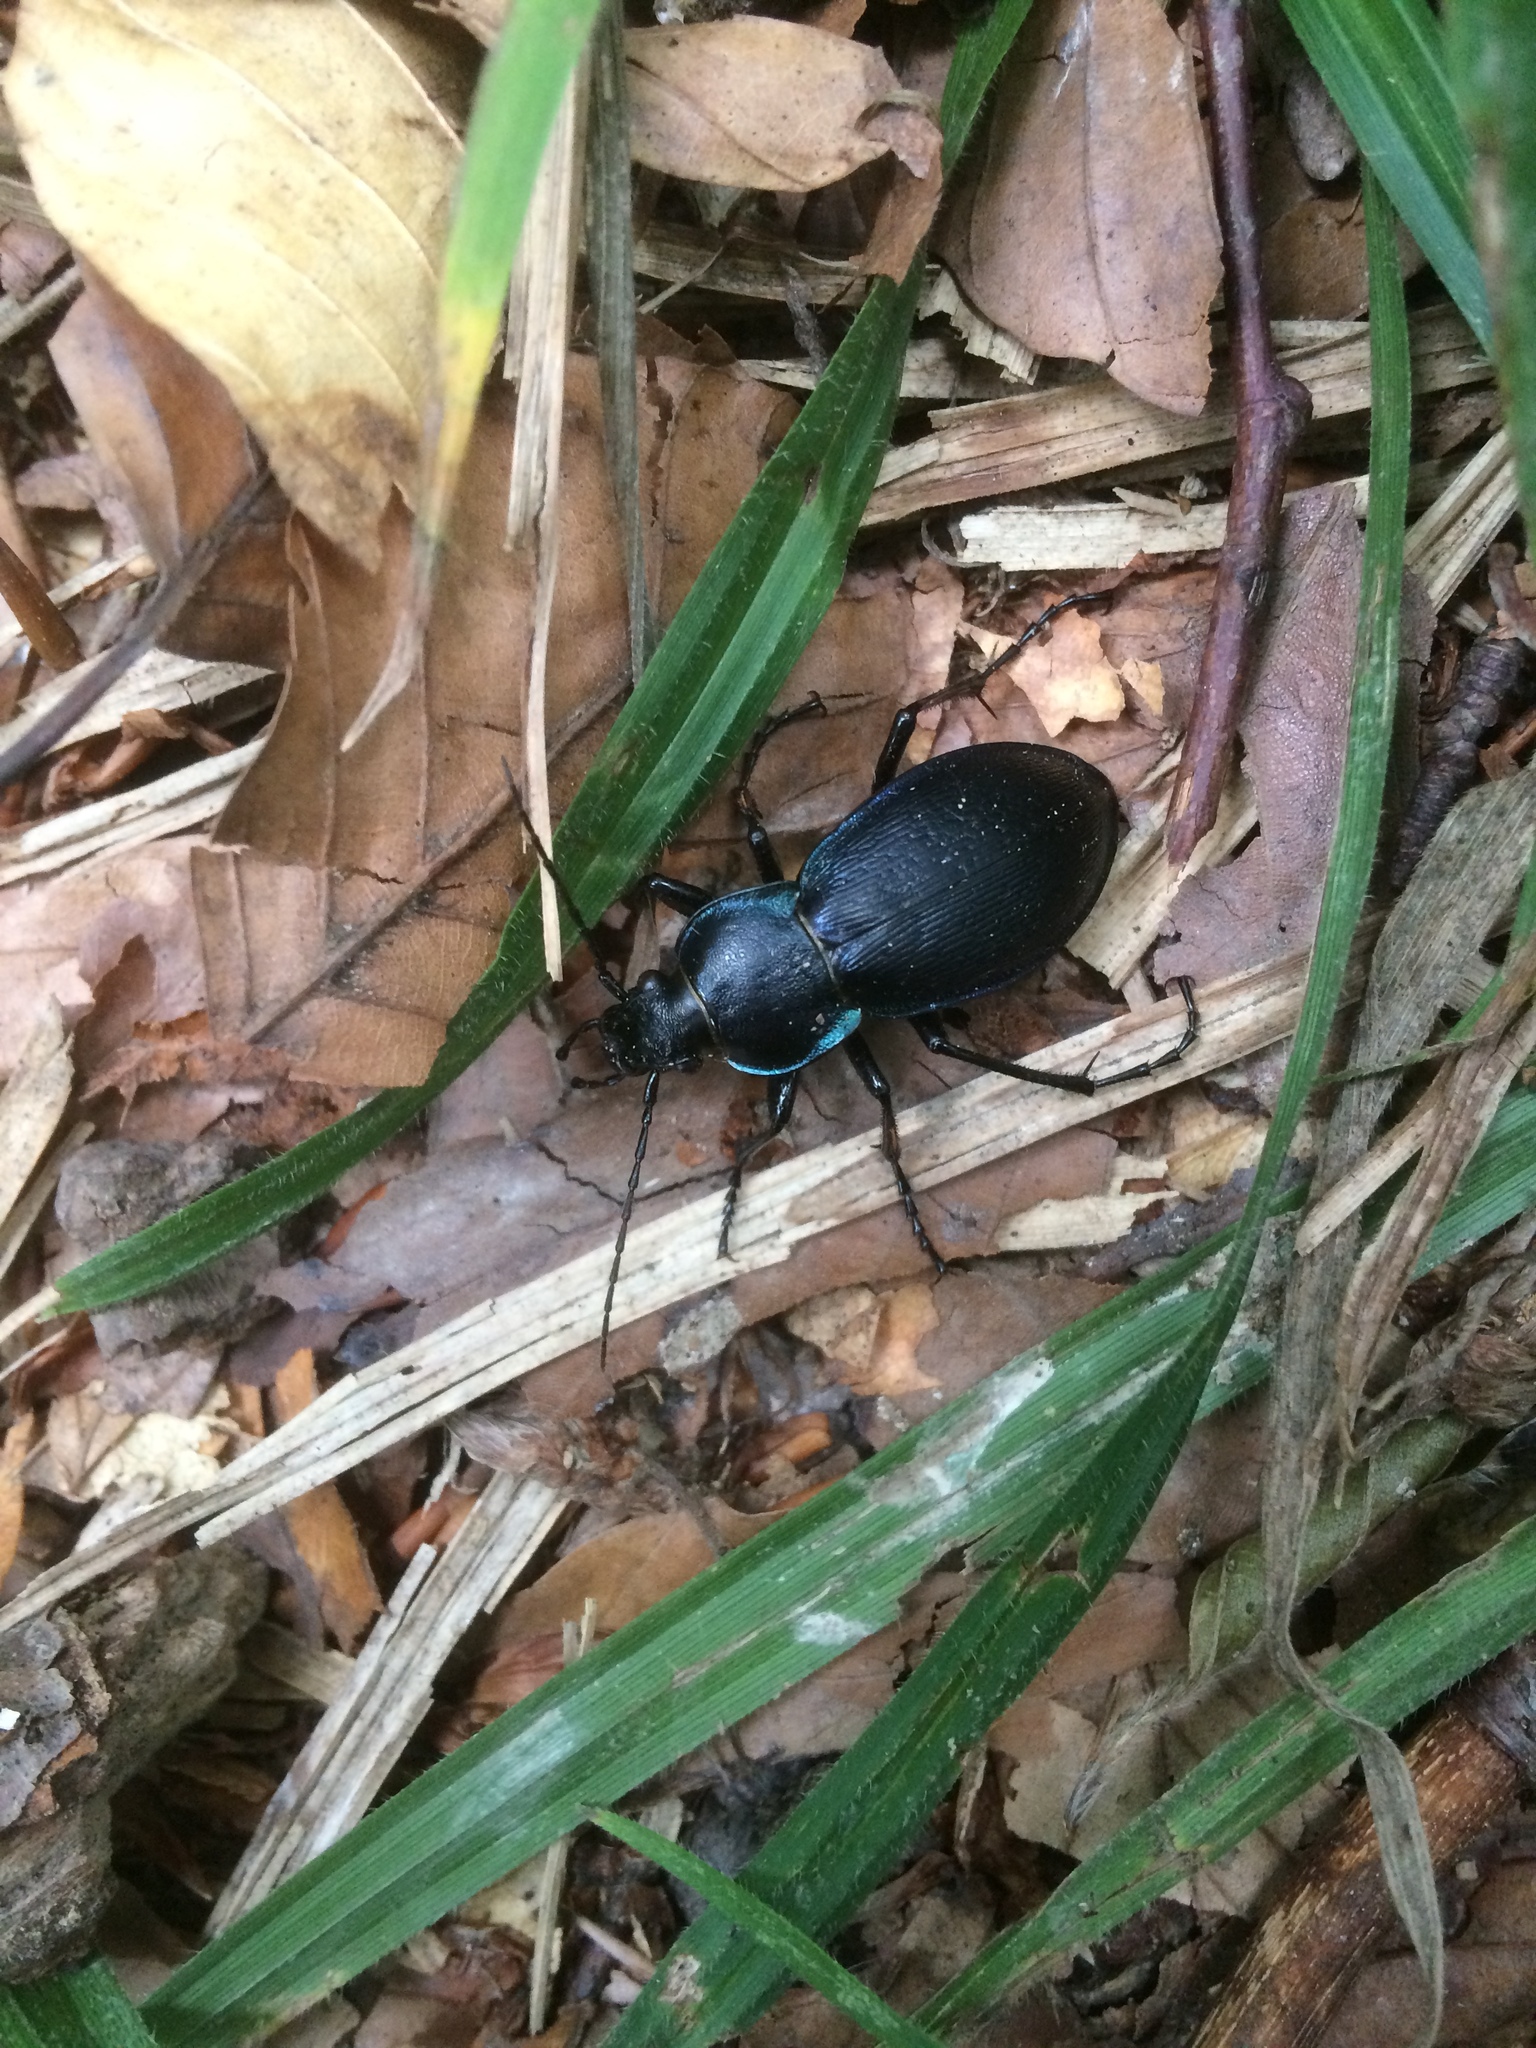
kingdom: Animalia
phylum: Arthropoda
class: Insecta
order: Coleoptera
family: Carabidae
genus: Carabus
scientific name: Carabus scheidleri
